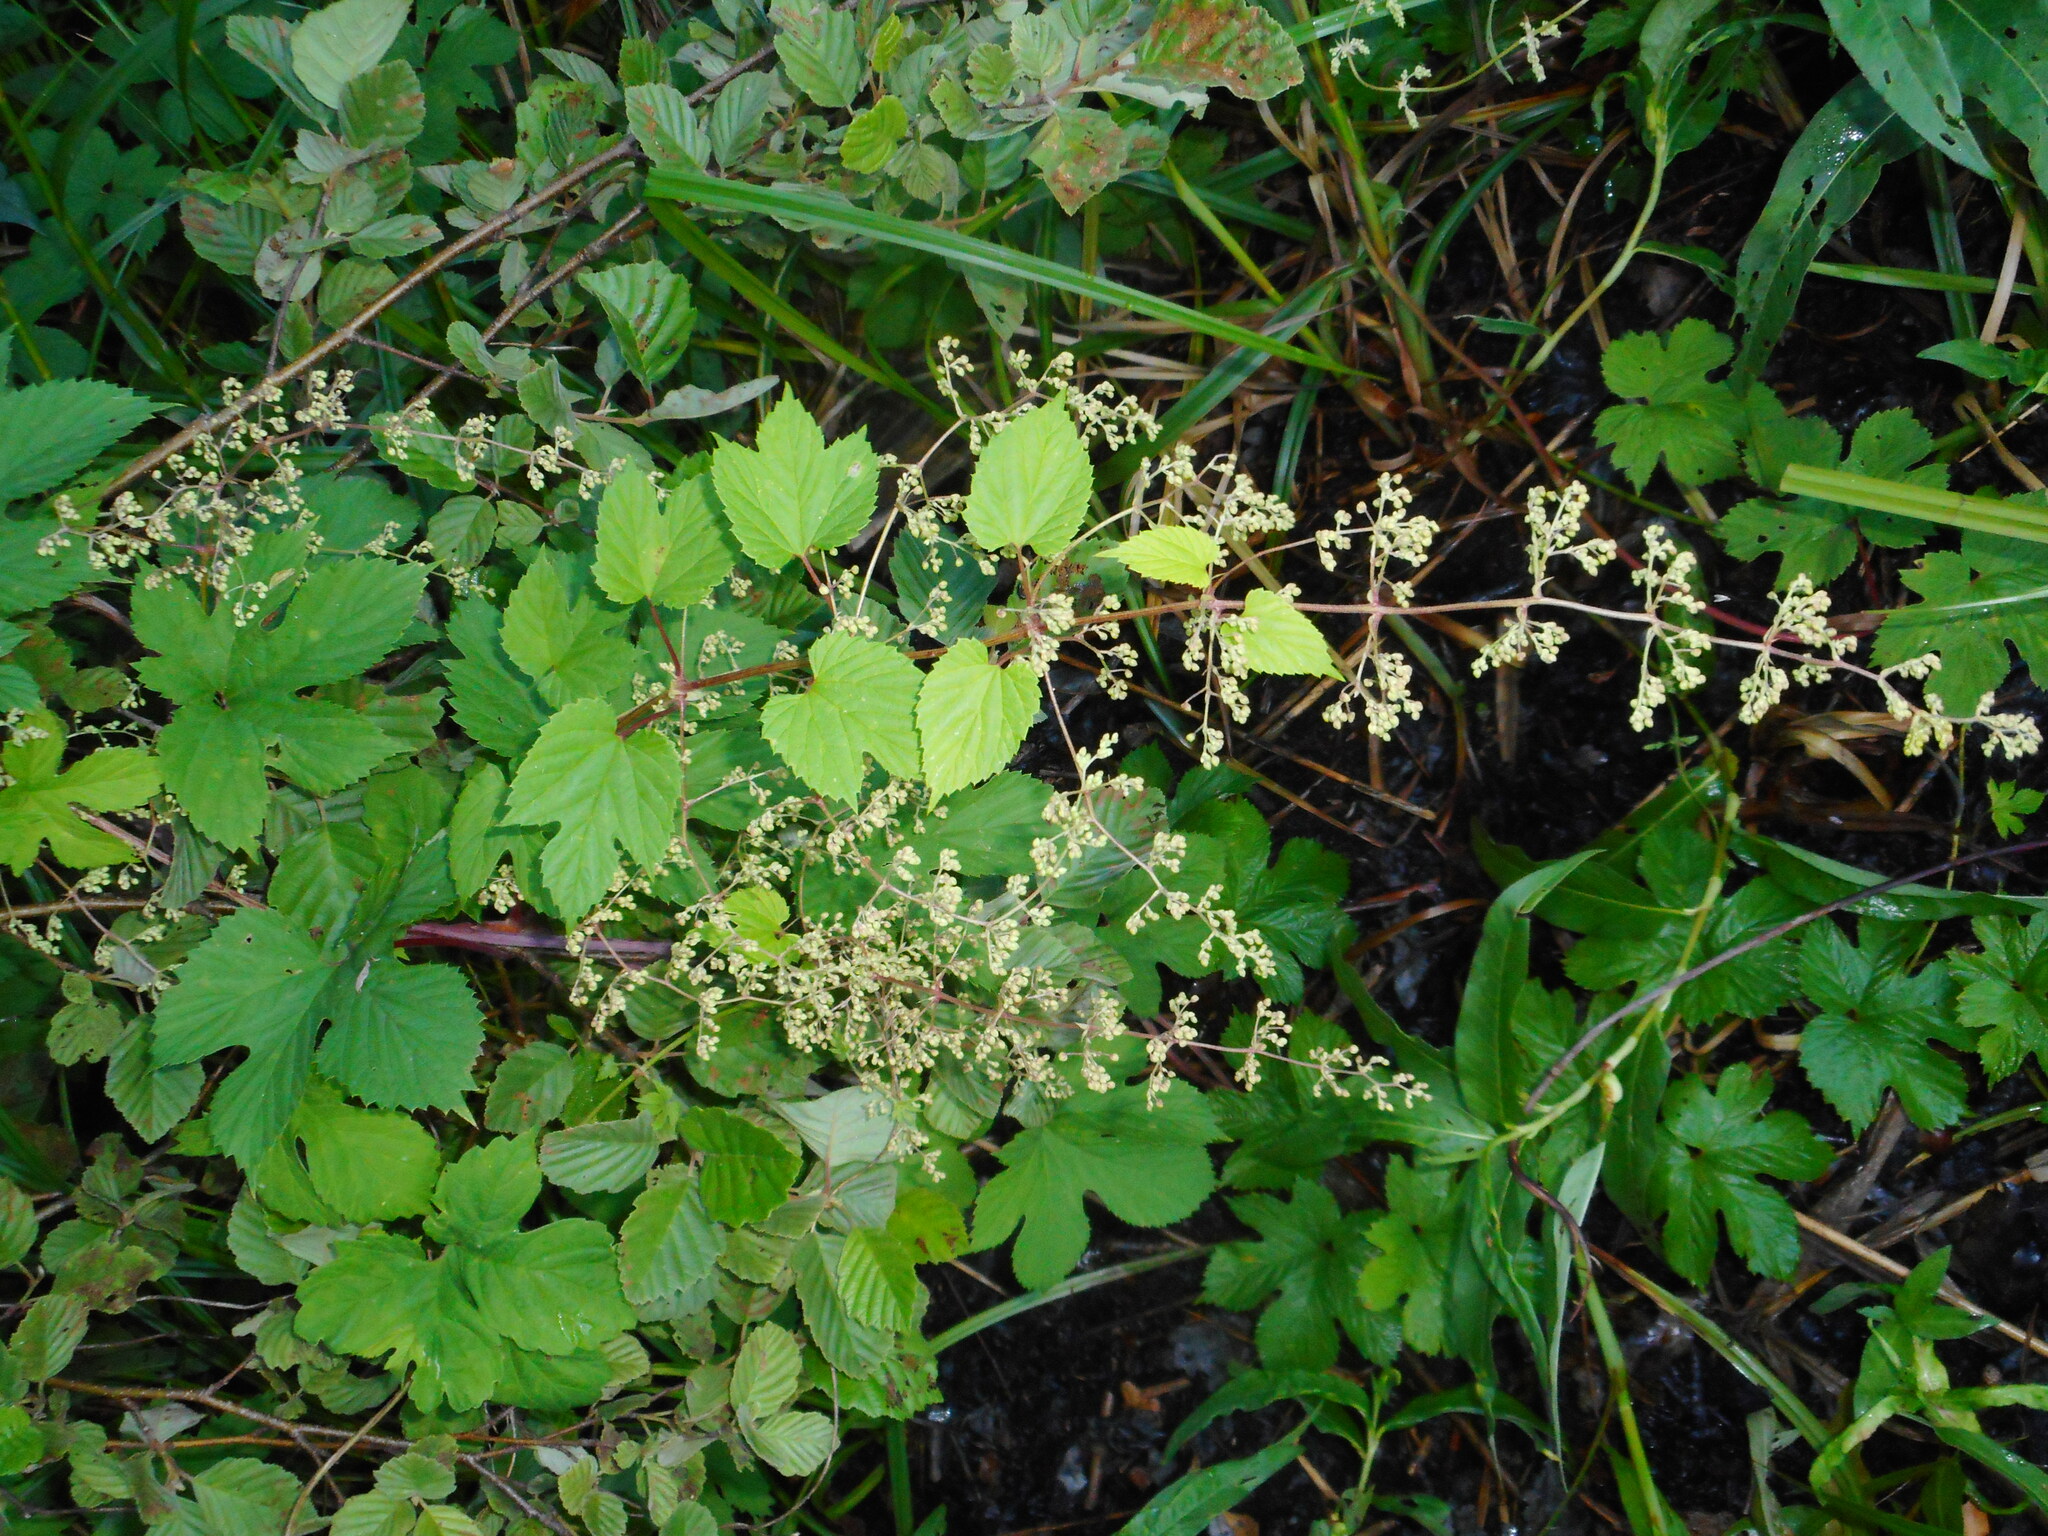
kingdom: Plantae
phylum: Tracheophyta
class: Magnoliopsida
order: Rosales
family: Cannabaceae
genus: Humulus
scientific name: Humulus lupulus
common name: Hop
